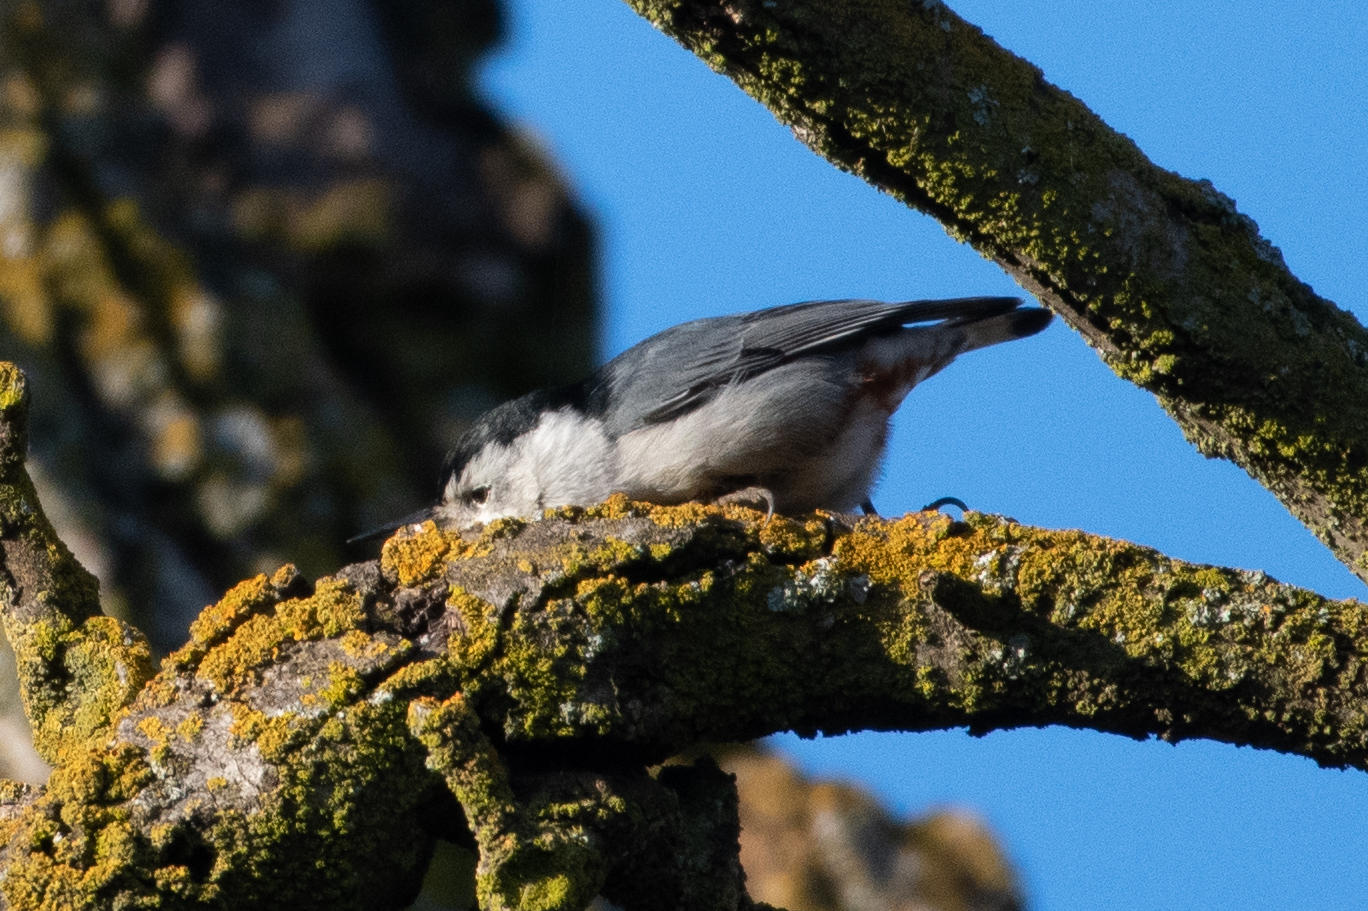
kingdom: Animalia
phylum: Chordata
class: Aves
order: Passeriformes
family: Sittidae
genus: Sitta
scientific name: Sitta carolinensis
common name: White-breasted nuthatch
